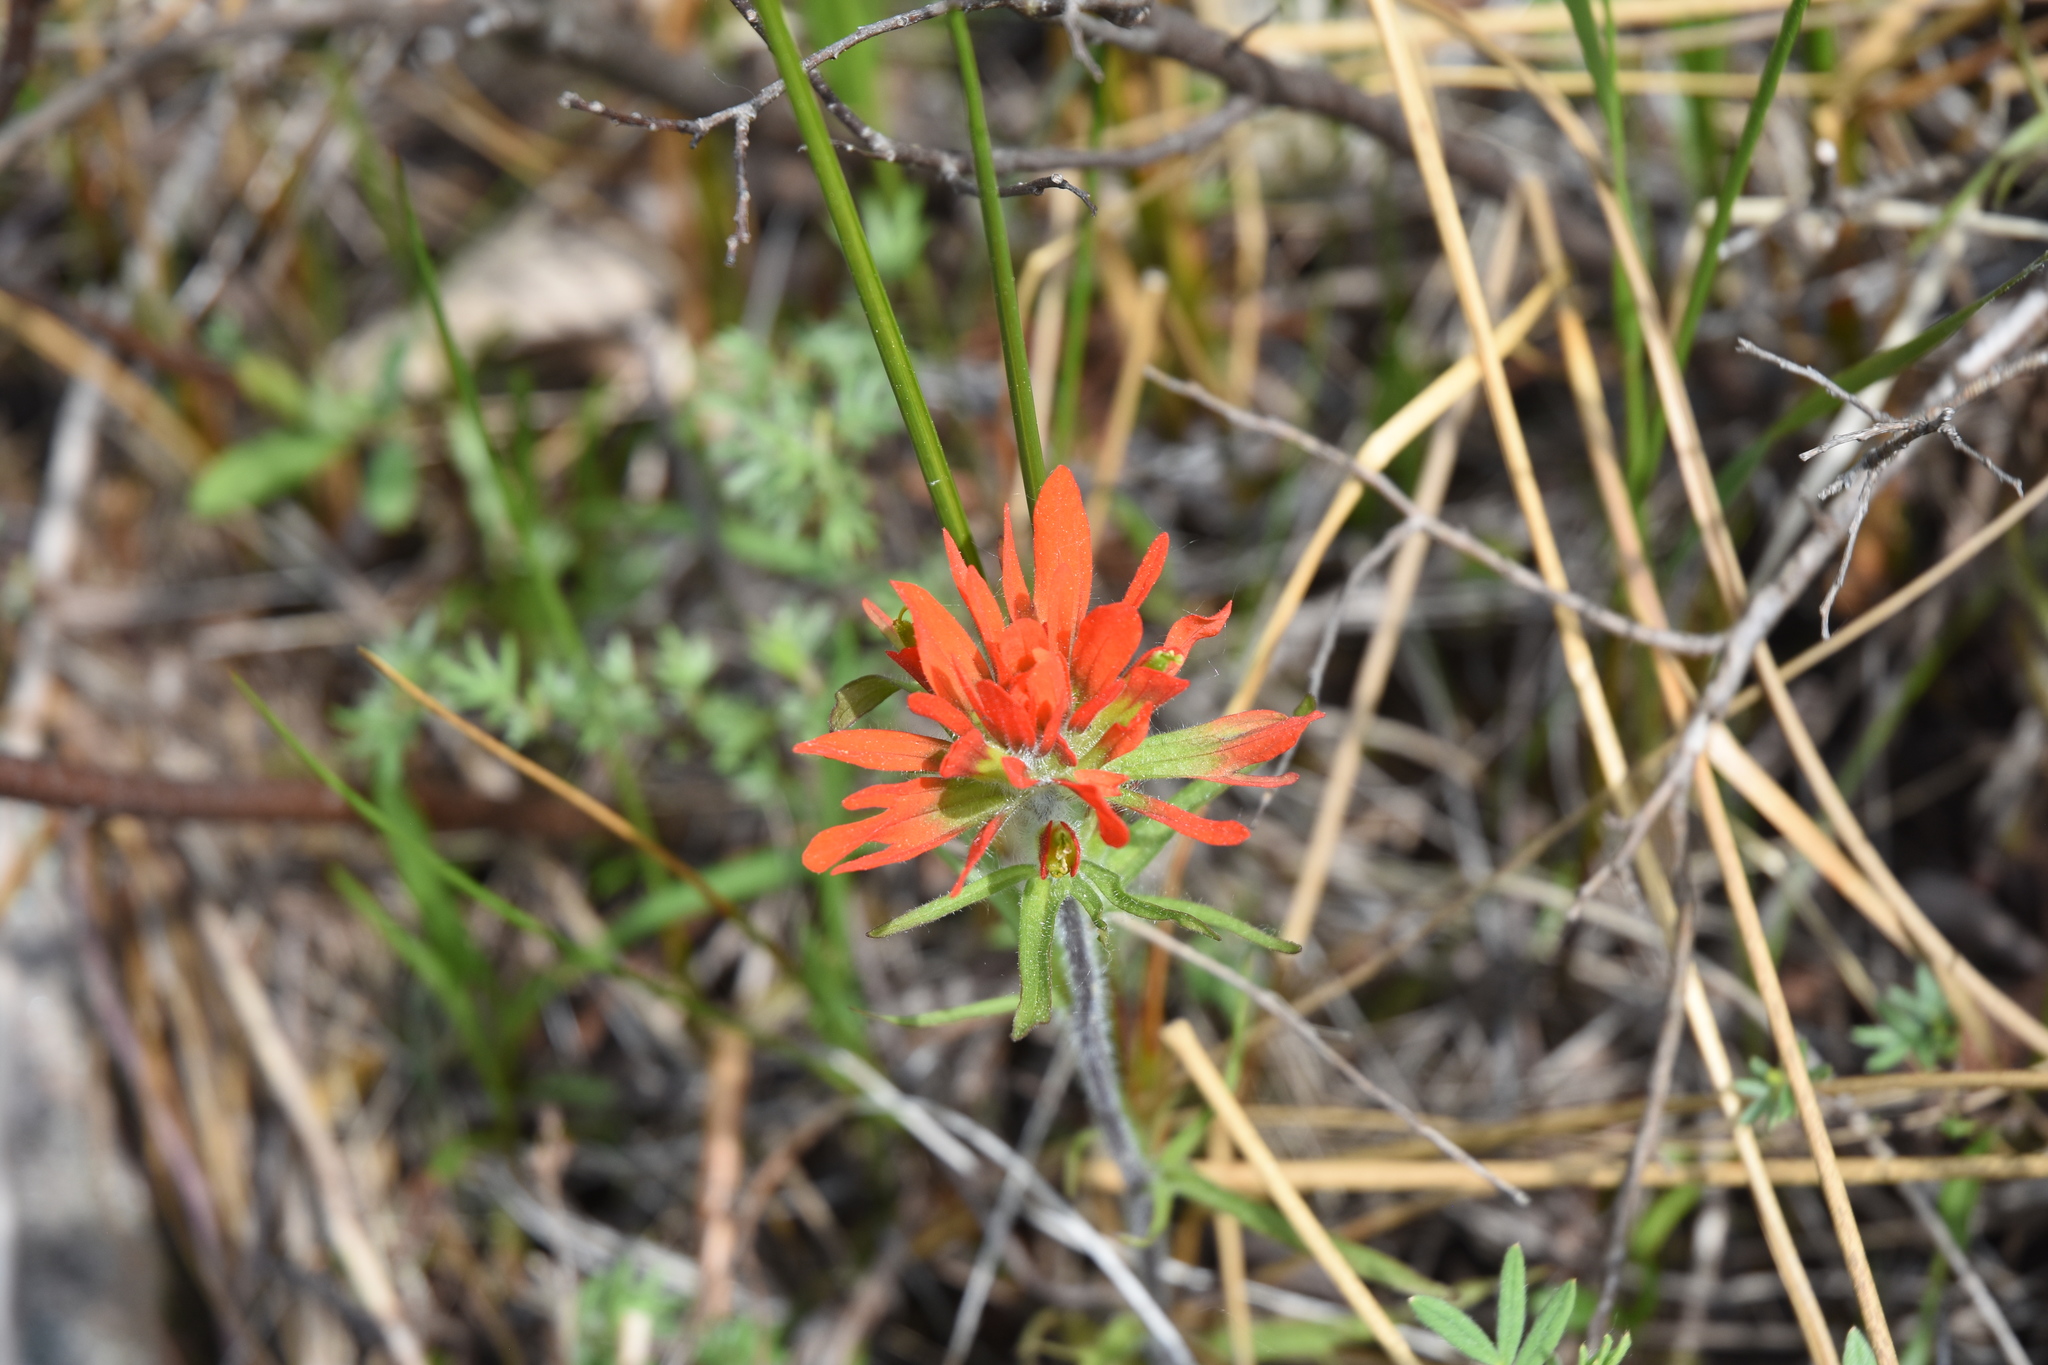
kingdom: Plantae
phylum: Tracheophyta
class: Magnoliopsida
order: Lamiales
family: Orobanchaceae
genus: Castilleja
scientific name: Castilleja coccinea
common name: Scarlet paintbrush
